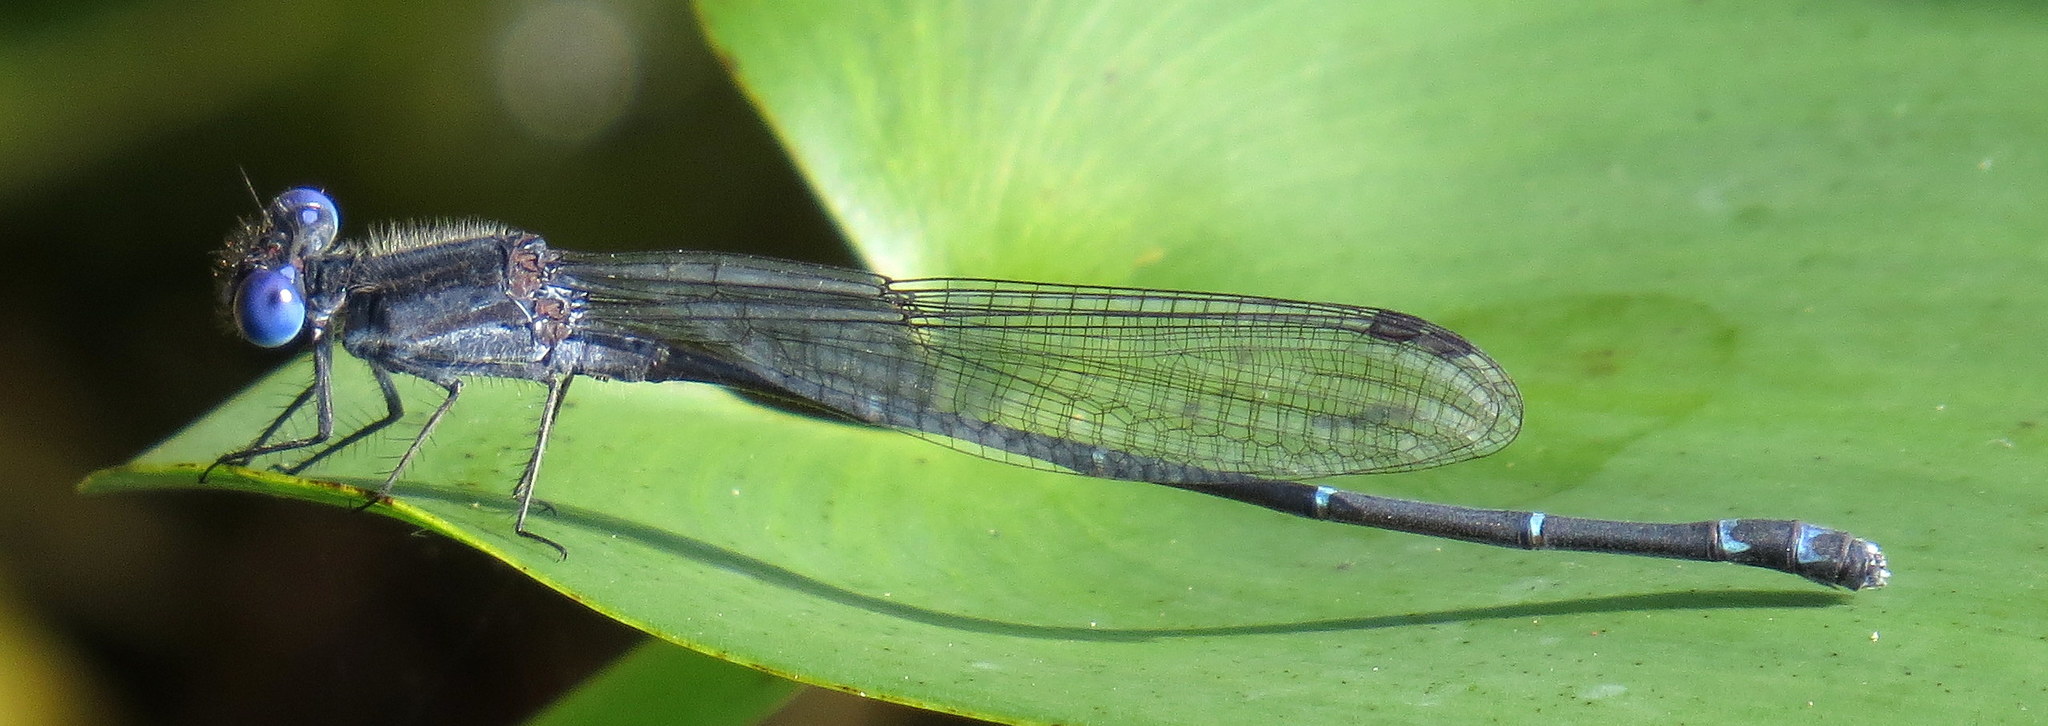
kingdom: Animalia
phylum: Arthropoda
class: Insecta
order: Odonata
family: Coenagrionidae
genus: Argia
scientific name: Argia translata
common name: Dusky dancer
